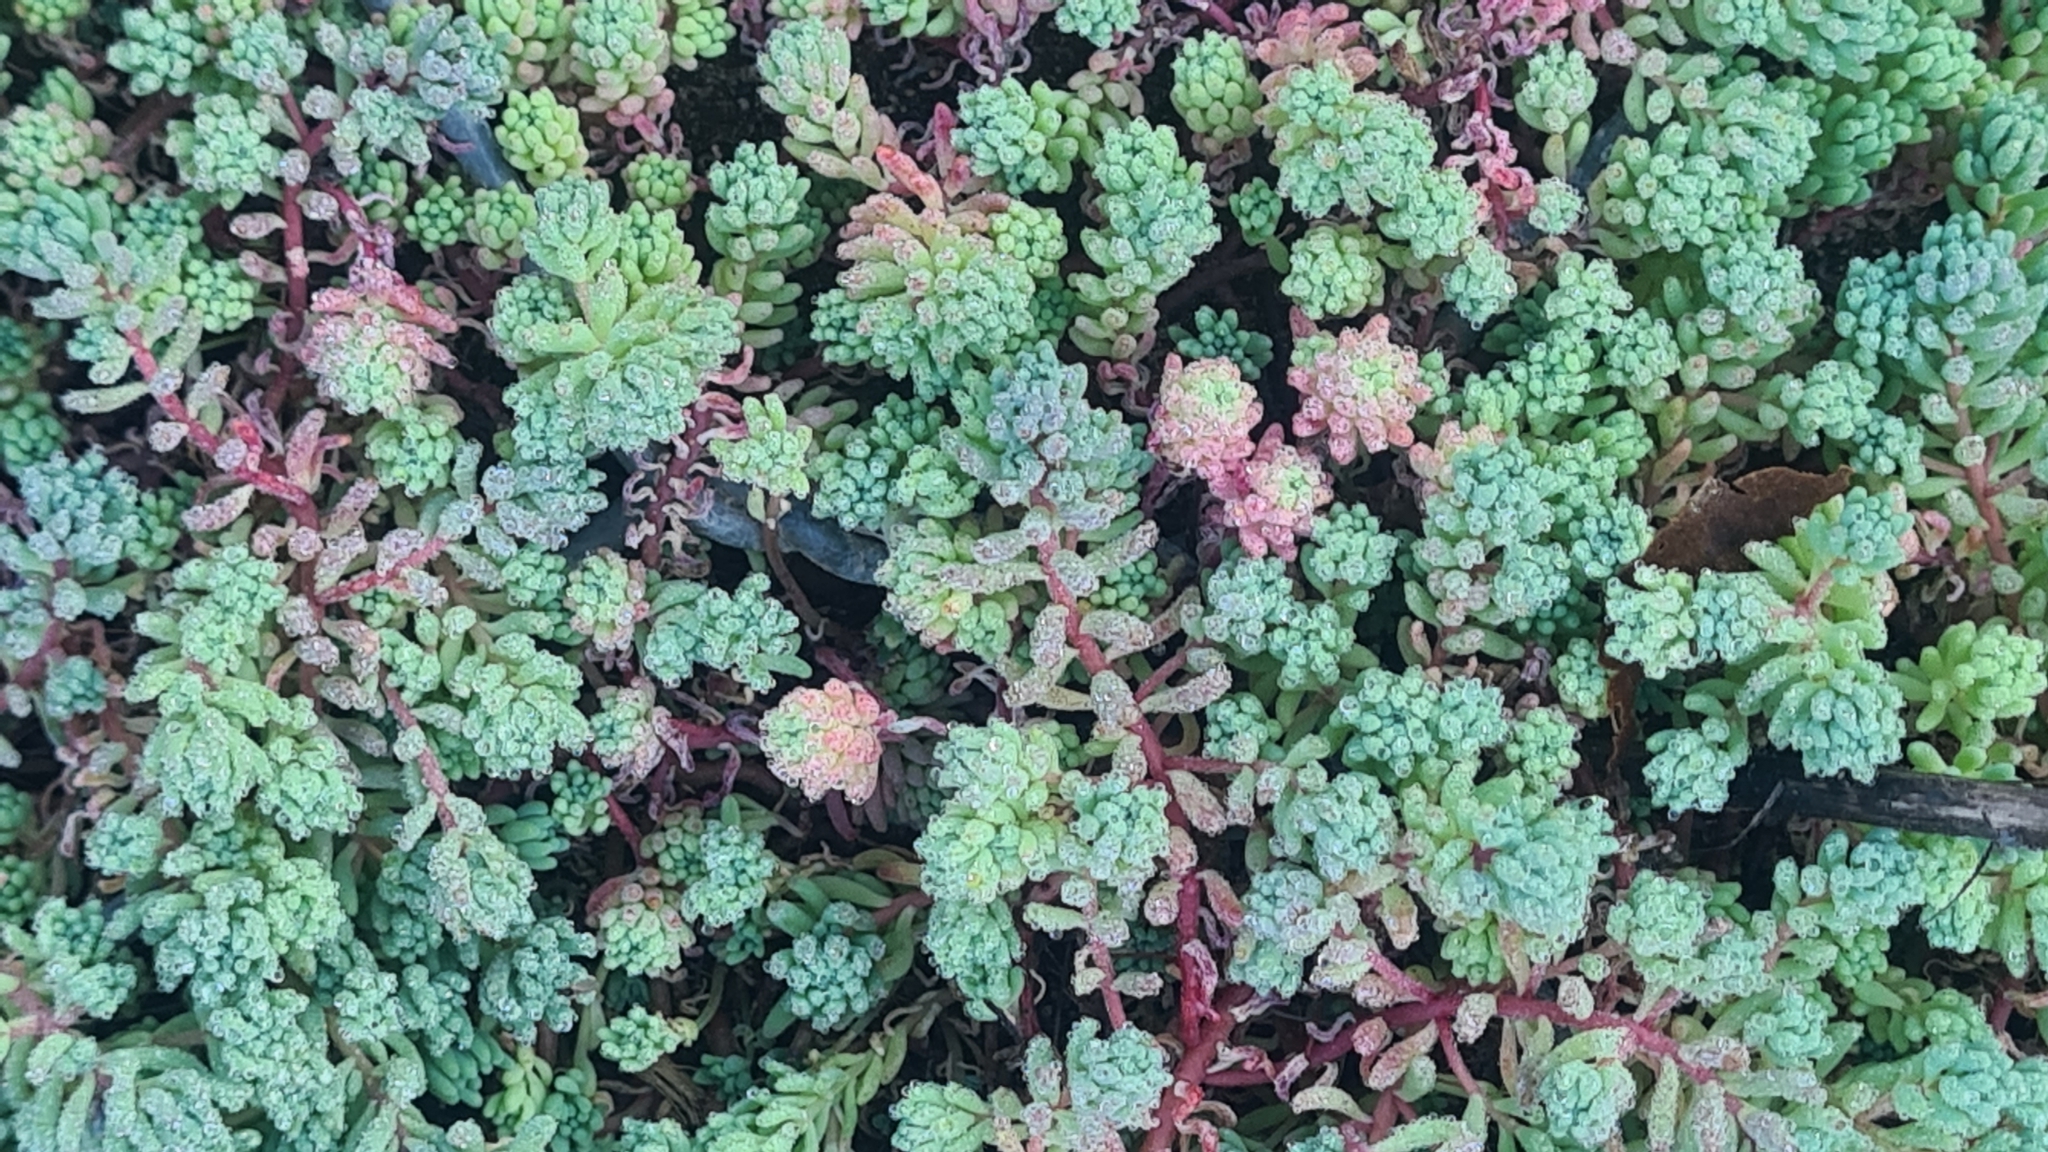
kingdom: Plantae
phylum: Tracheophyta
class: Magnoliopsida
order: Saxifragales
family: Crassulaceae
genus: Sedum
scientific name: Sedum pallidum
